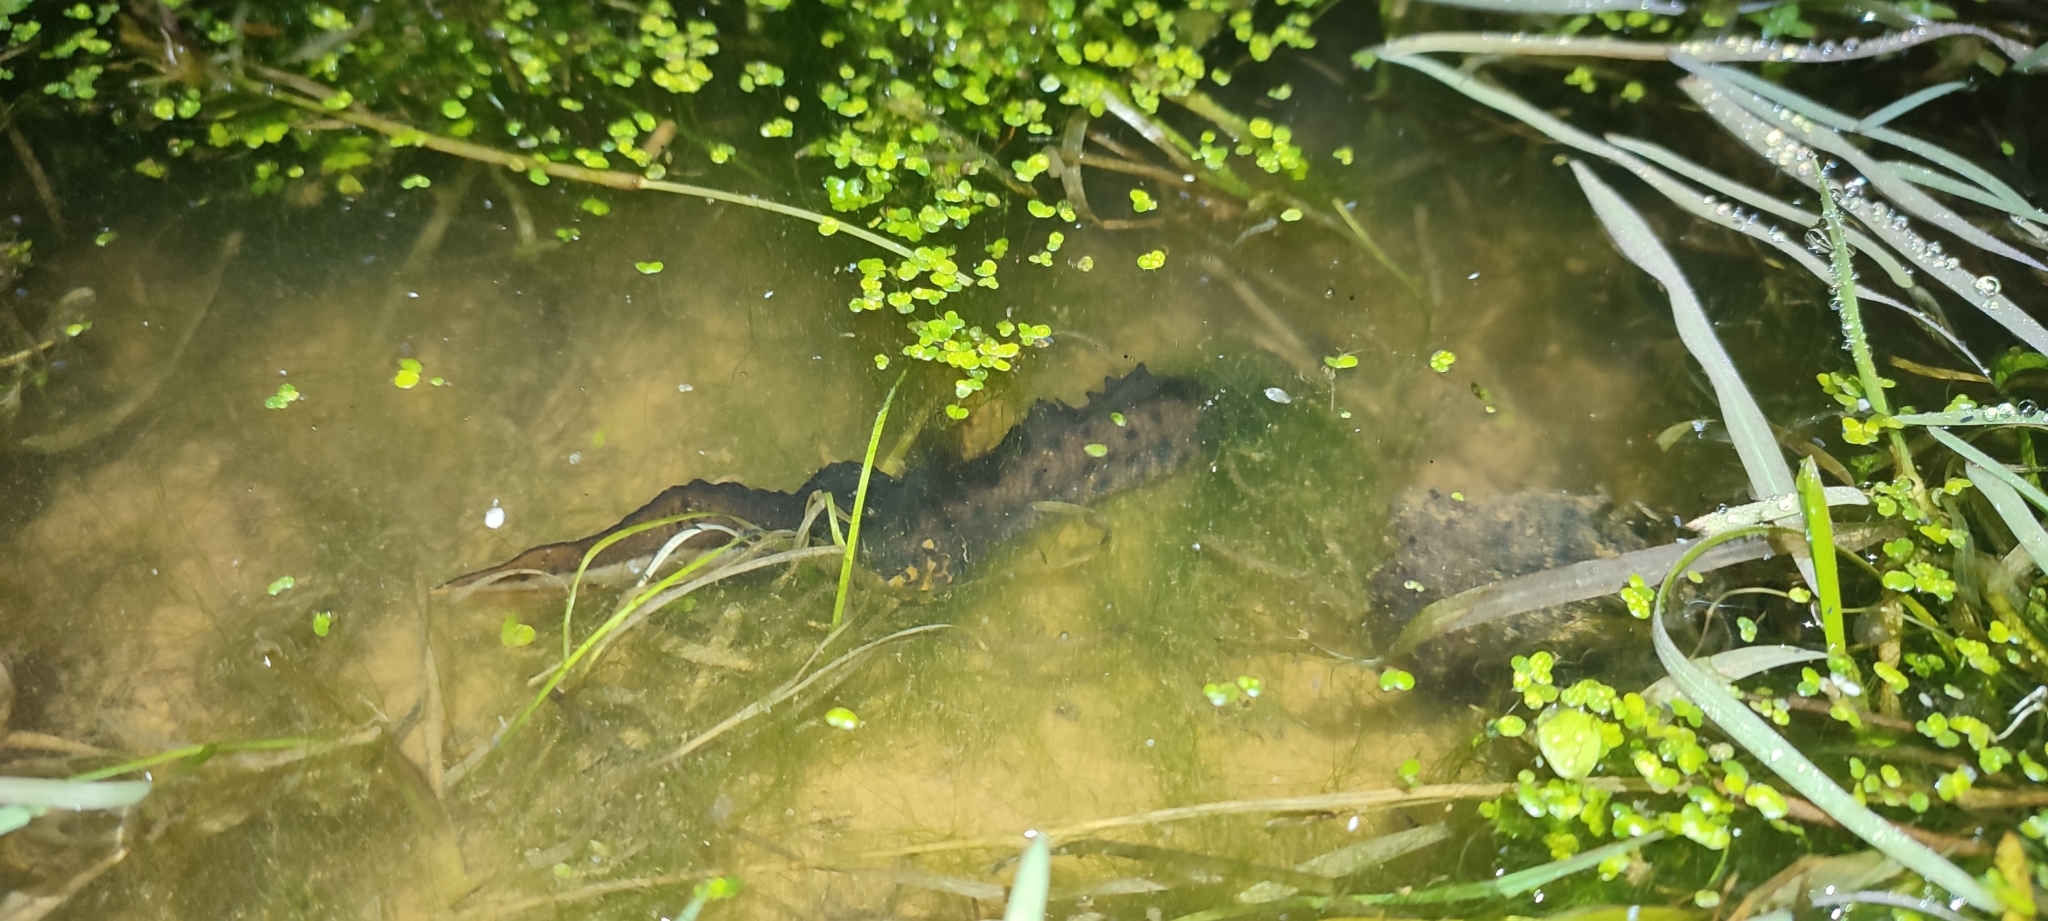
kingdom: Animalia
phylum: Chordata
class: Amphibia
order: Caudata
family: Salamandridae
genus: Triturus
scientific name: Triturus cristatus
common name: Crested newt
